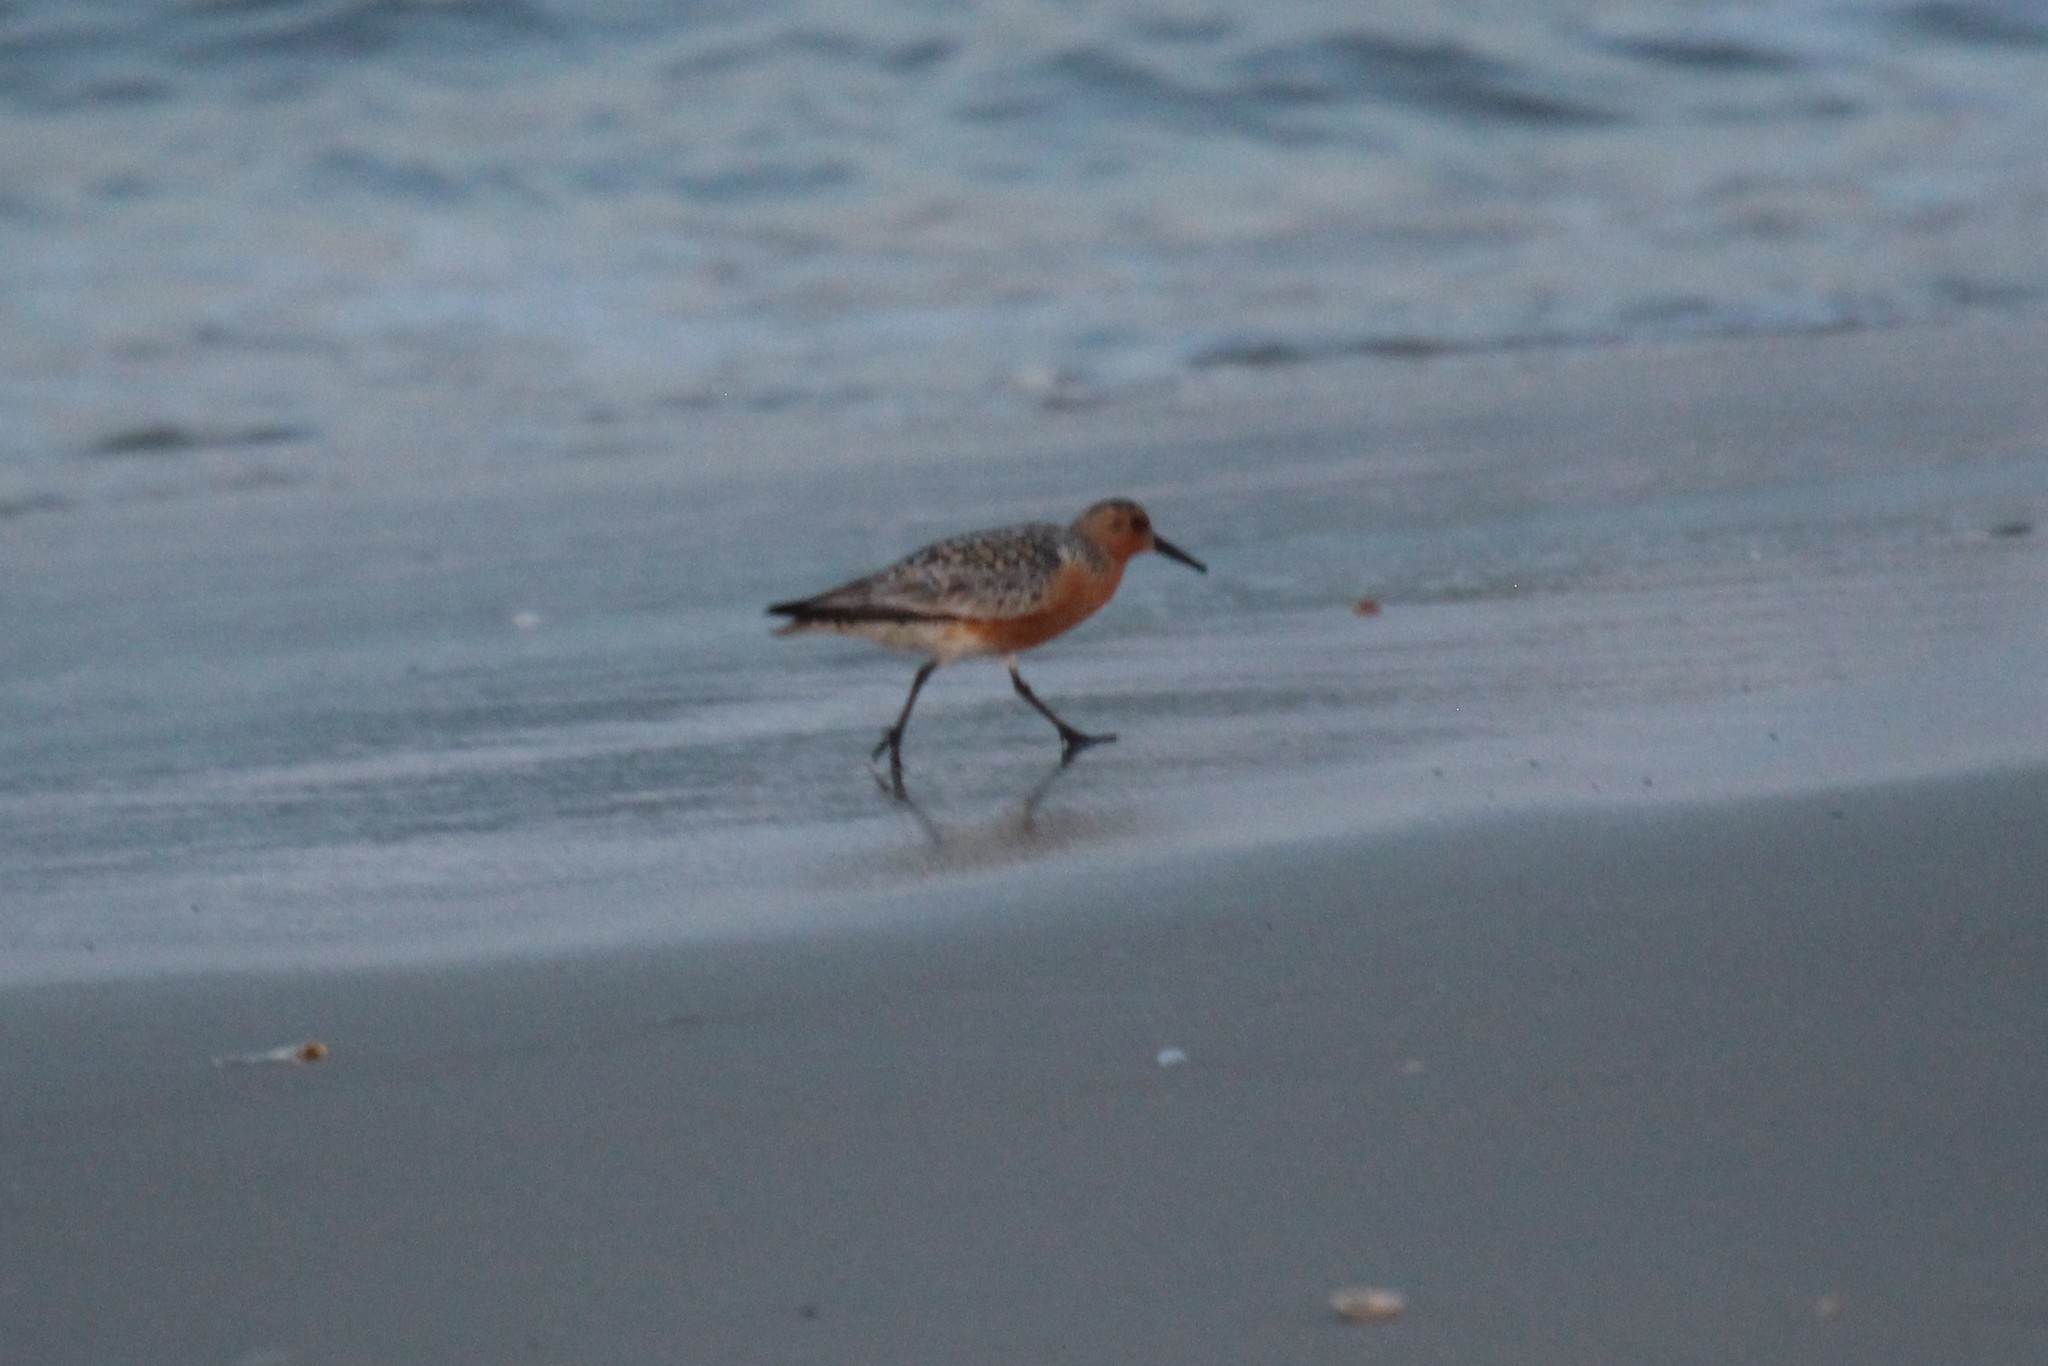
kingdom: Animalia
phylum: Chordata
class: Aves
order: Charadriiformes
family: Scolopacidae
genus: Calidris
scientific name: Calidris canutus
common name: Red knot
